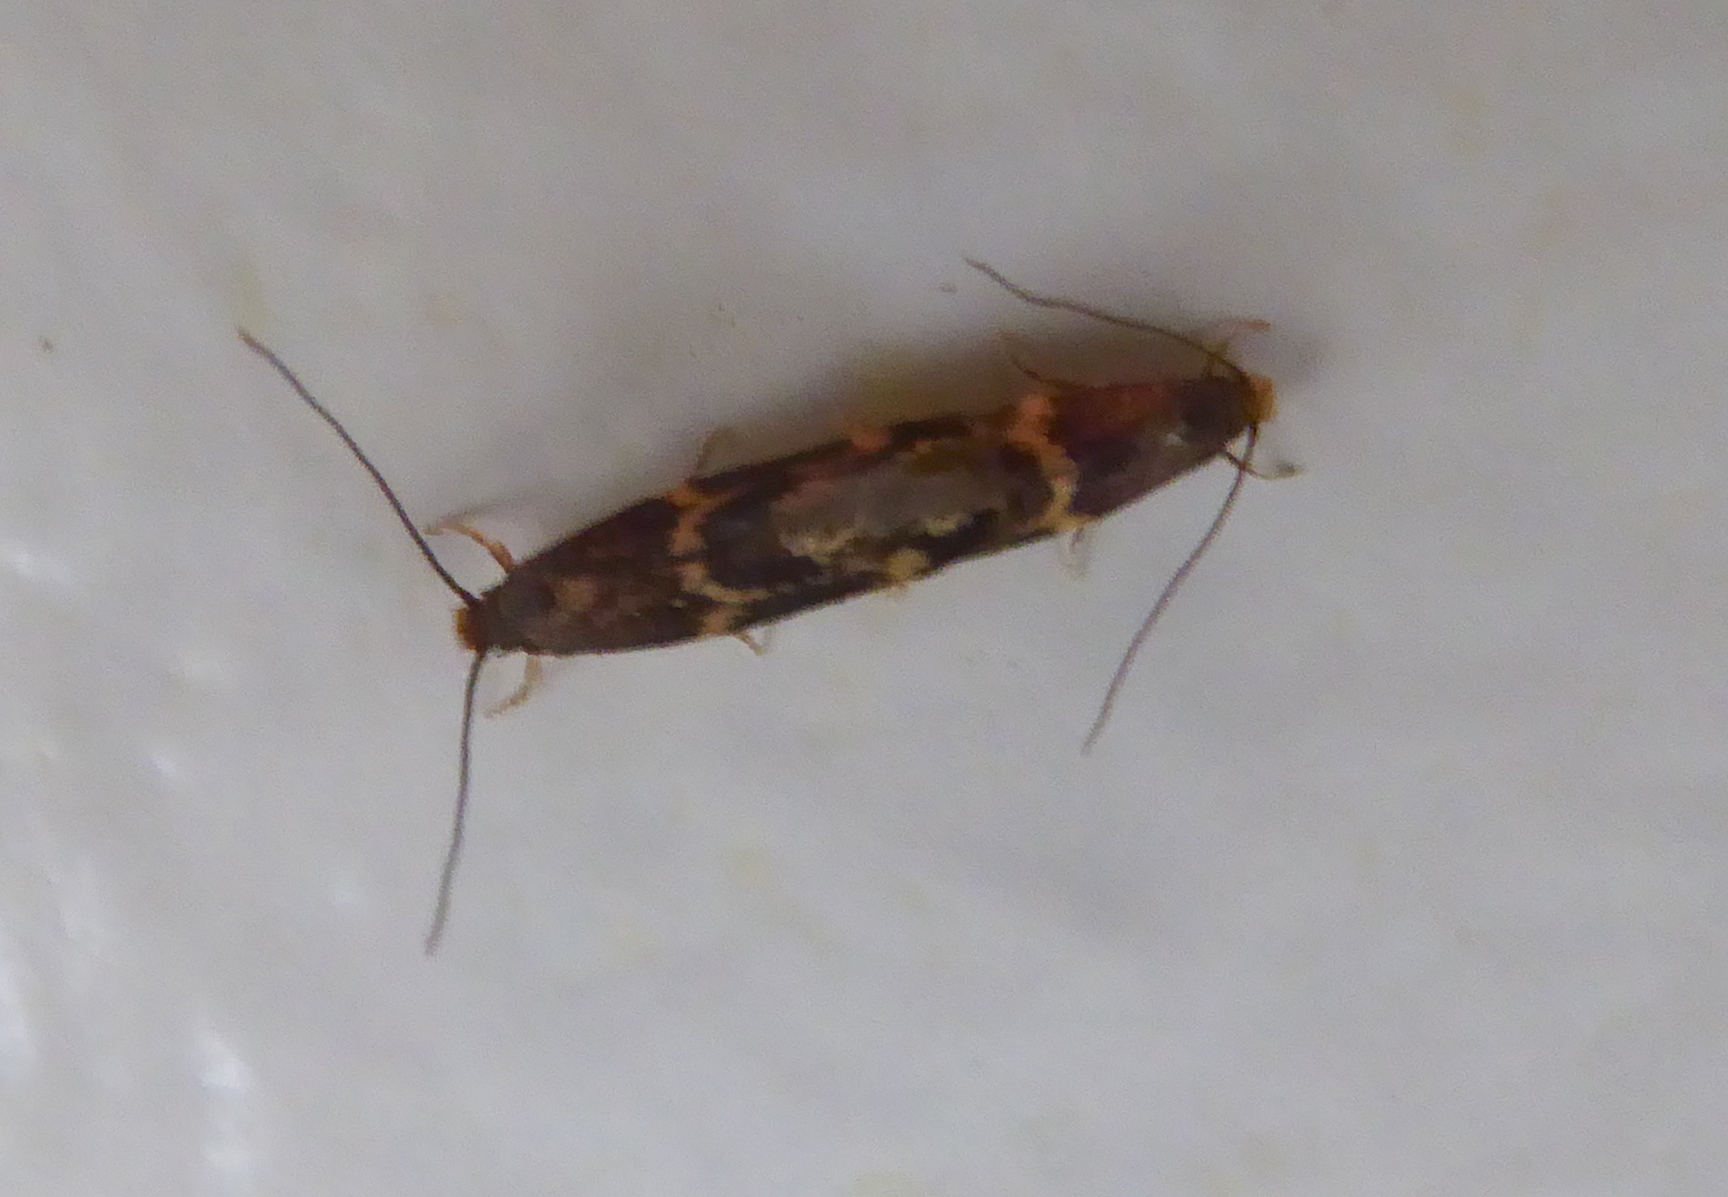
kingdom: Animalia
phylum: Arthropoda
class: Insecta
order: Lepidoptera
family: Tineidae
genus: Oinophila
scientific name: Oinophila v-flava
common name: Yellow v moth
